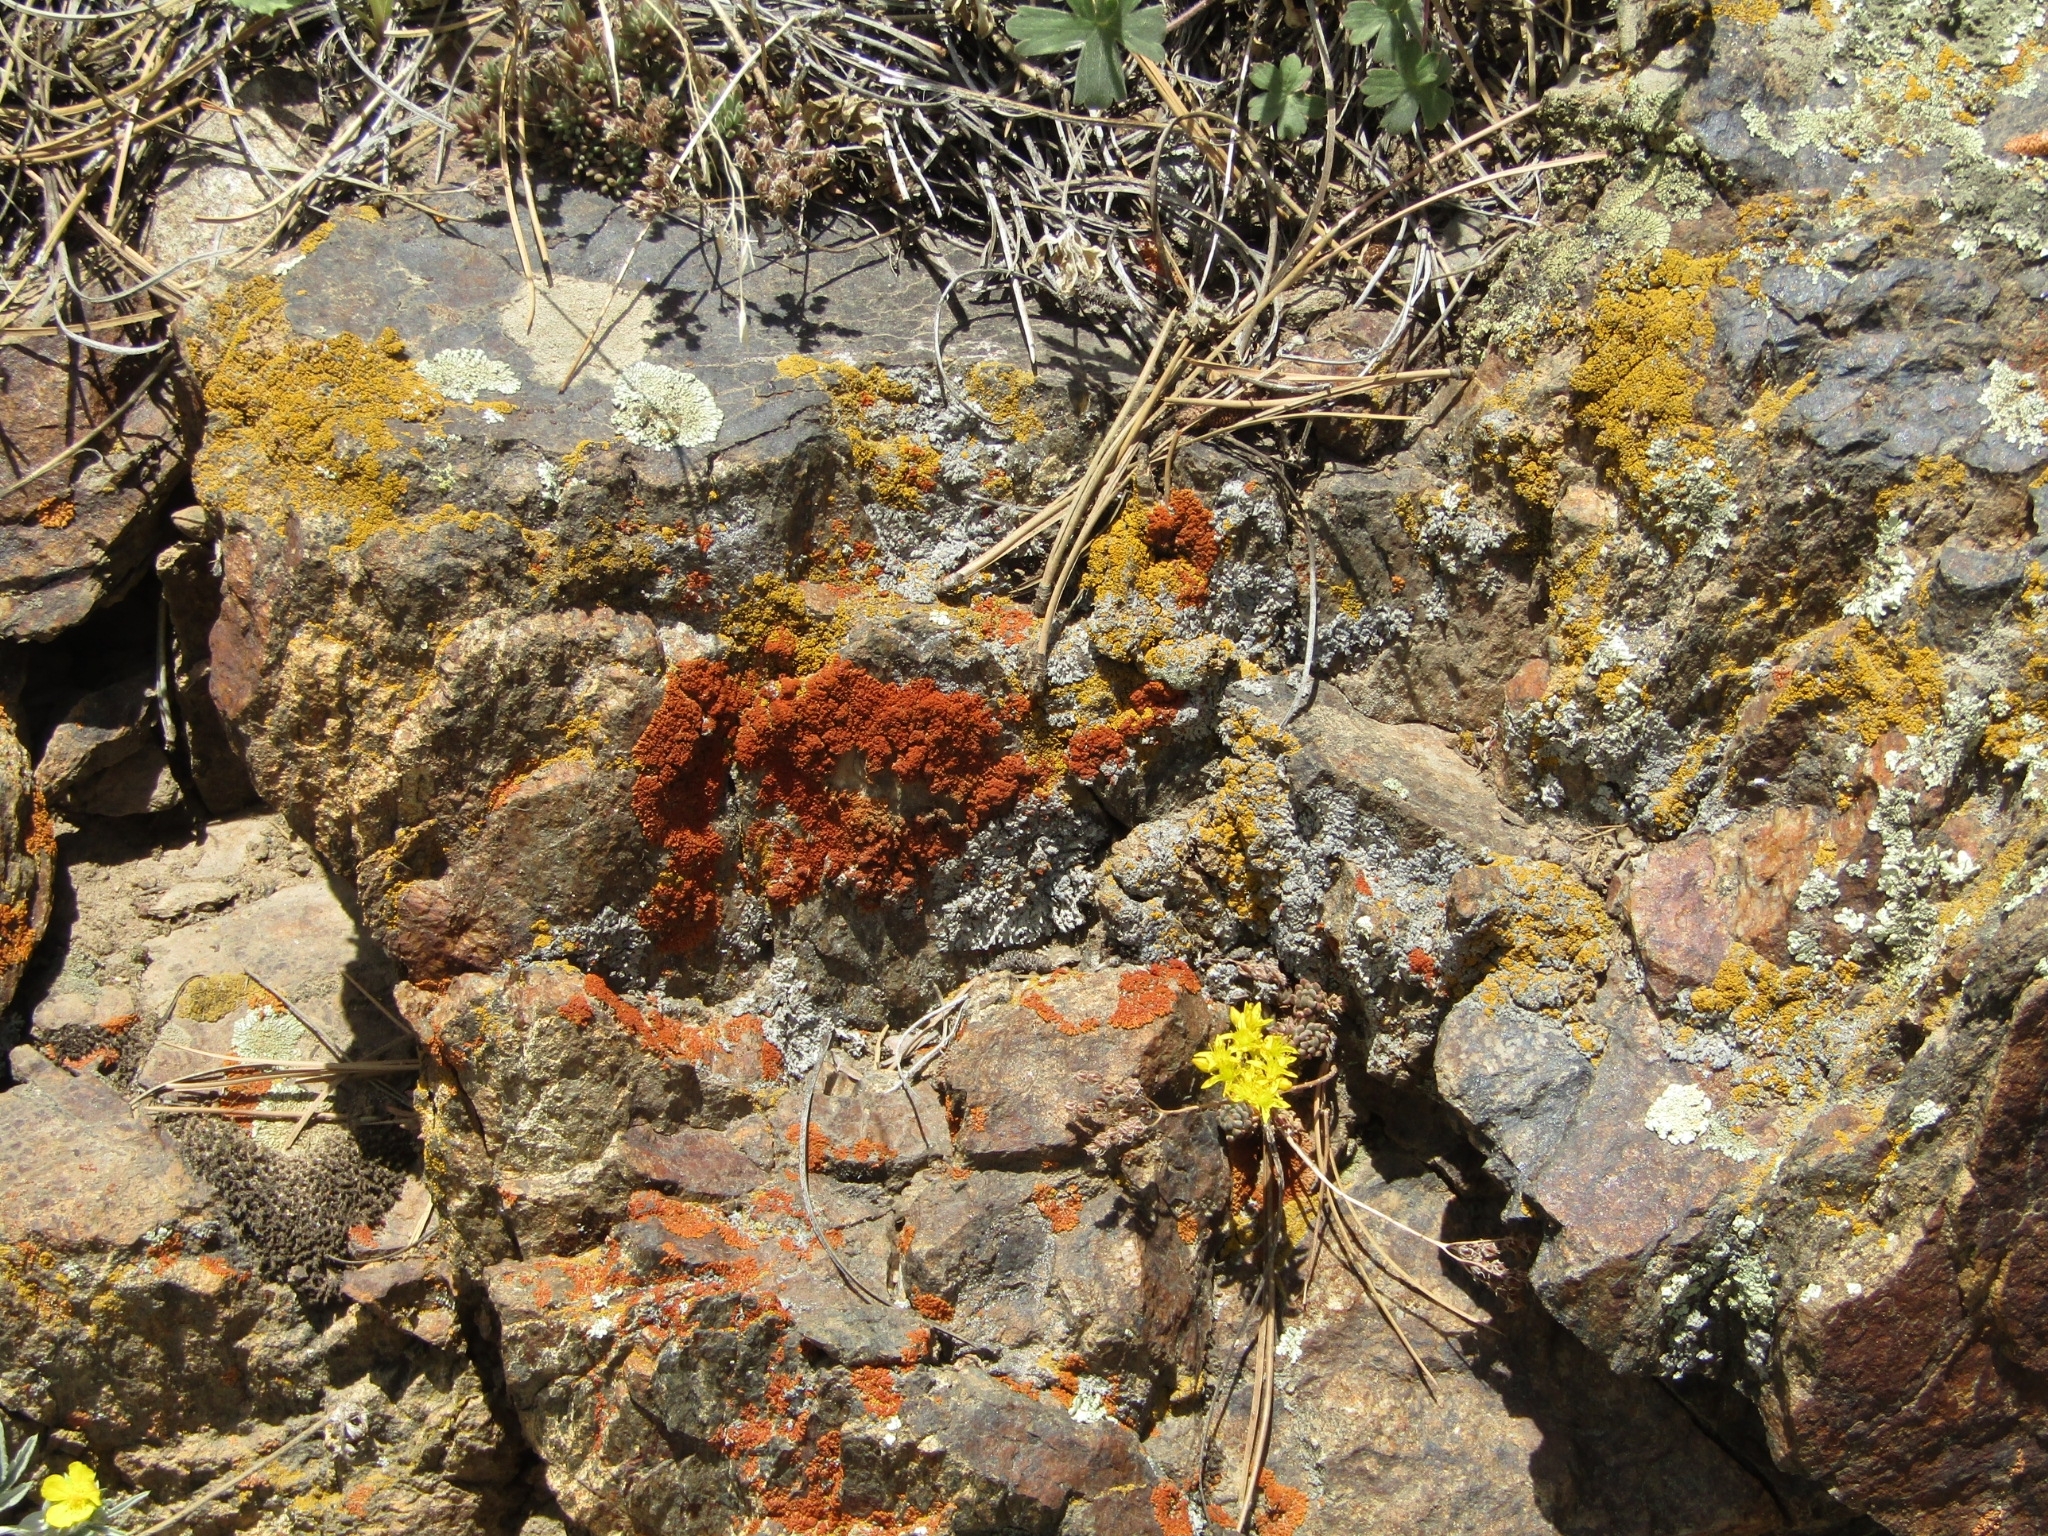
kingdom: Fungi
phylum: Ascomycota
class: Lecanoromycetes
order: Teloschistales
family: Teloschistaceae
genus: Xanthoria
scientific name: Xanthoria elegans
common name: Elegant sunburst lichen
